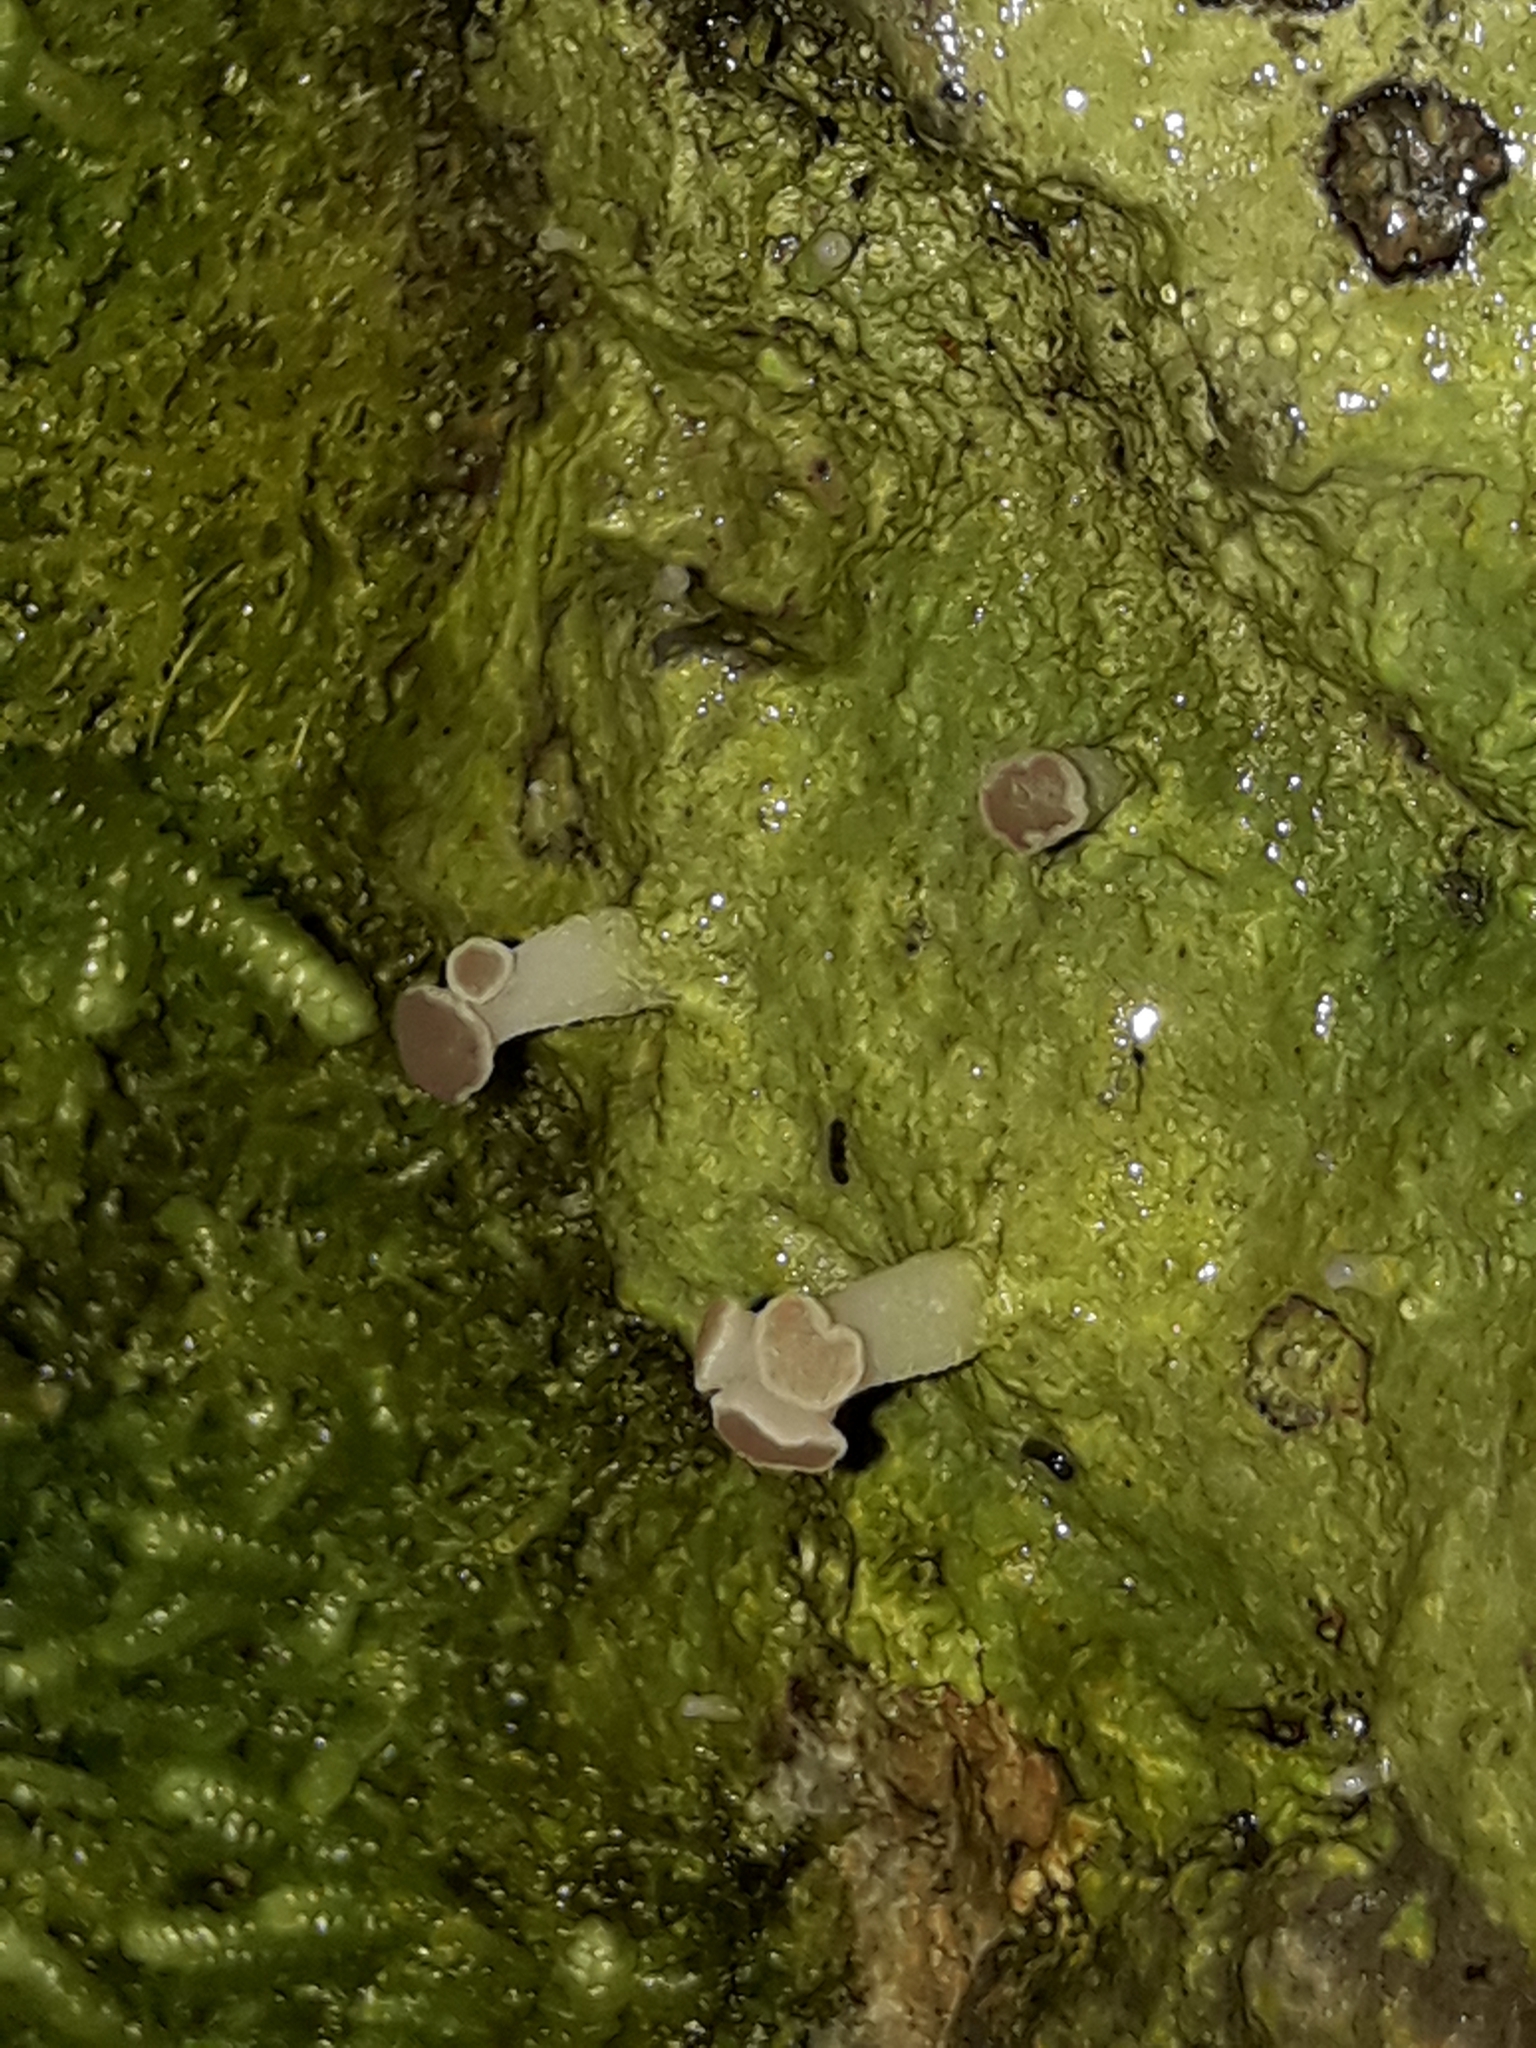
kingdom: Fungi
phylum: Ascomycota
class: Lecanoromycetes
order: Baeomycetales
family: Baeomycetaceae
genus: Baeomyces
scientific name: Baeomyces heteromorphus
